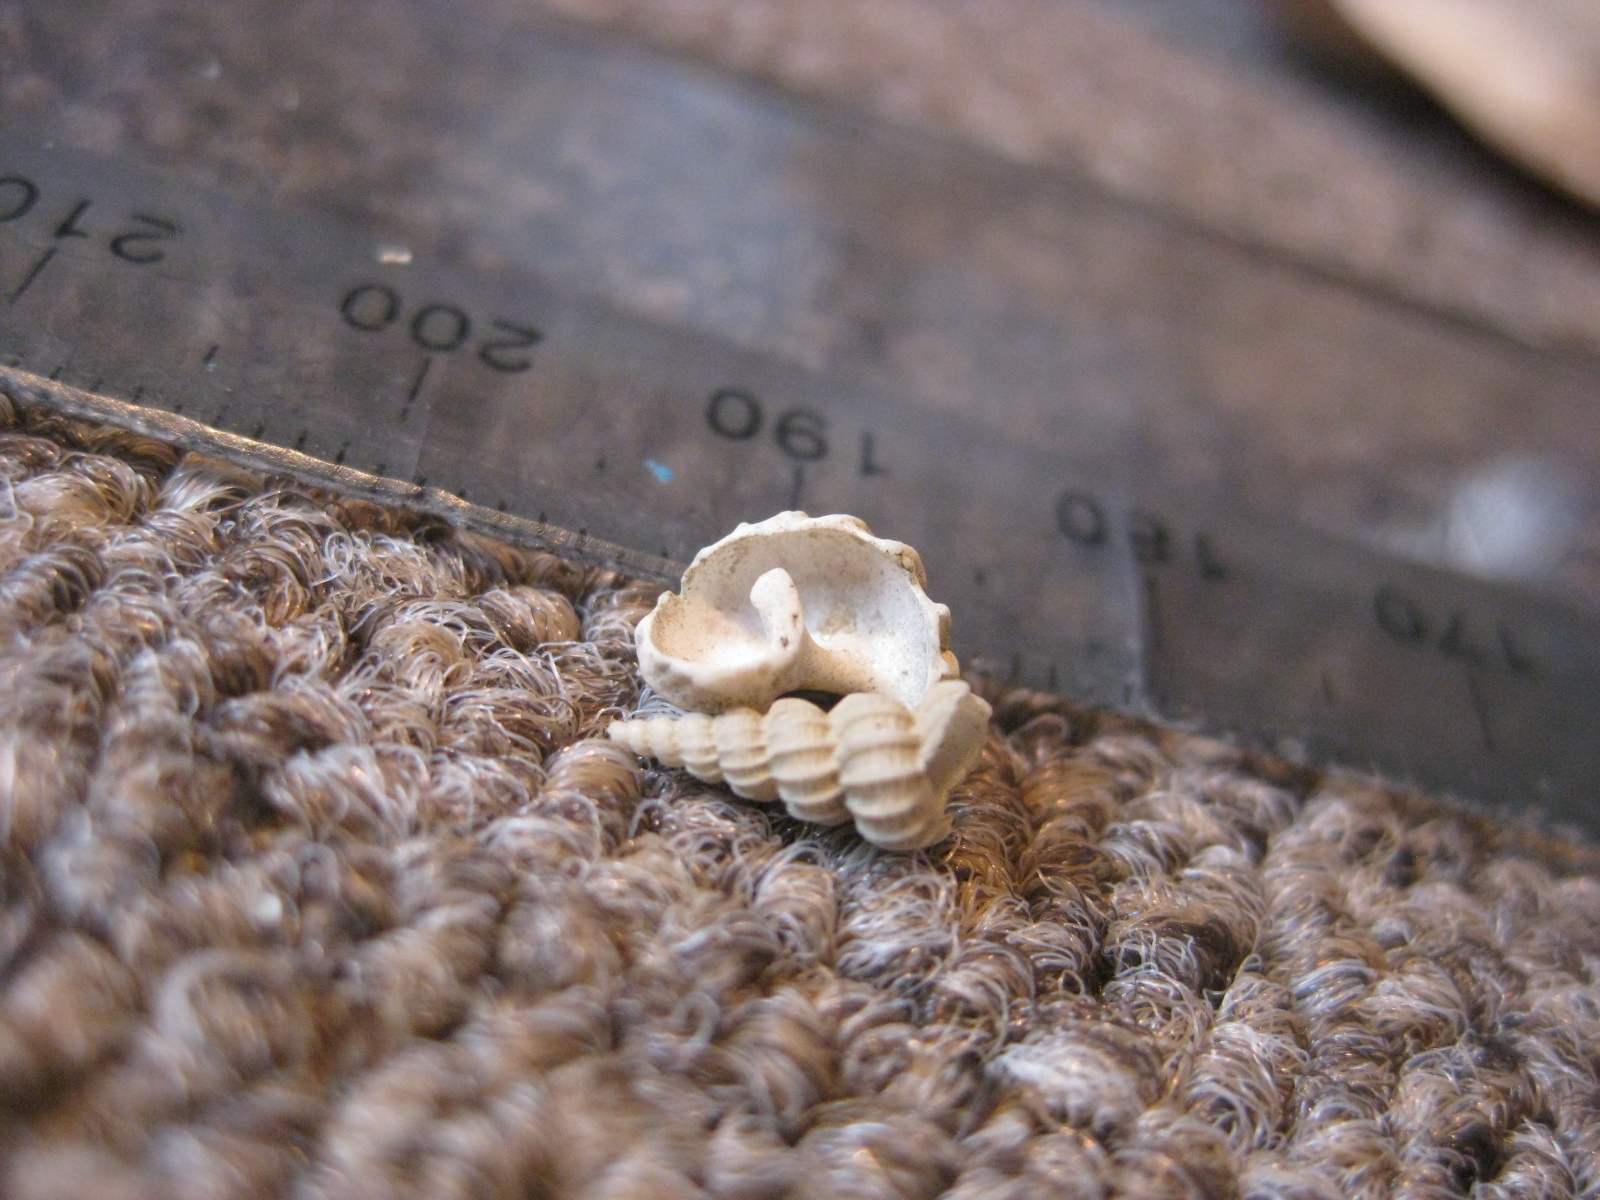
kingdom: Animalia
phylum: Mollusca
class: Gastropoda
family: Epitoniidae
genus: Cirsotrema
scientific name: Cirsotrema zelebori
